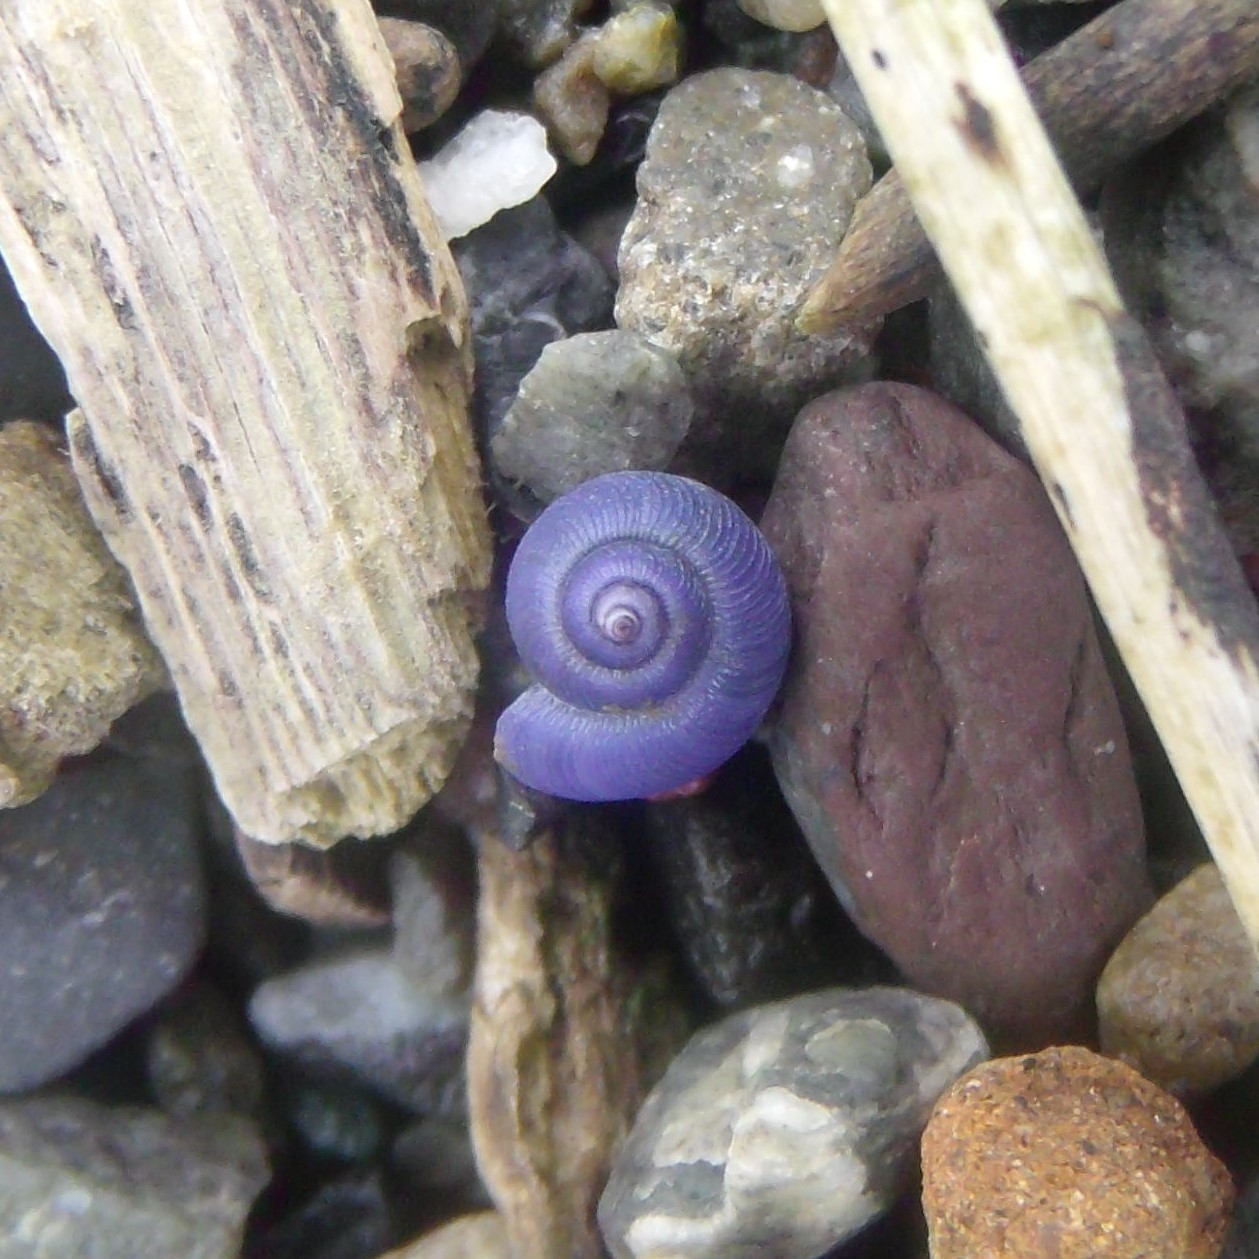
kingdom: Animalia
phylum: Mollusca
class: Gastropoda
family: Epitoniidae
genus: Janthina
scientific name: Janthina exigua
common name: Dwarf janthina
